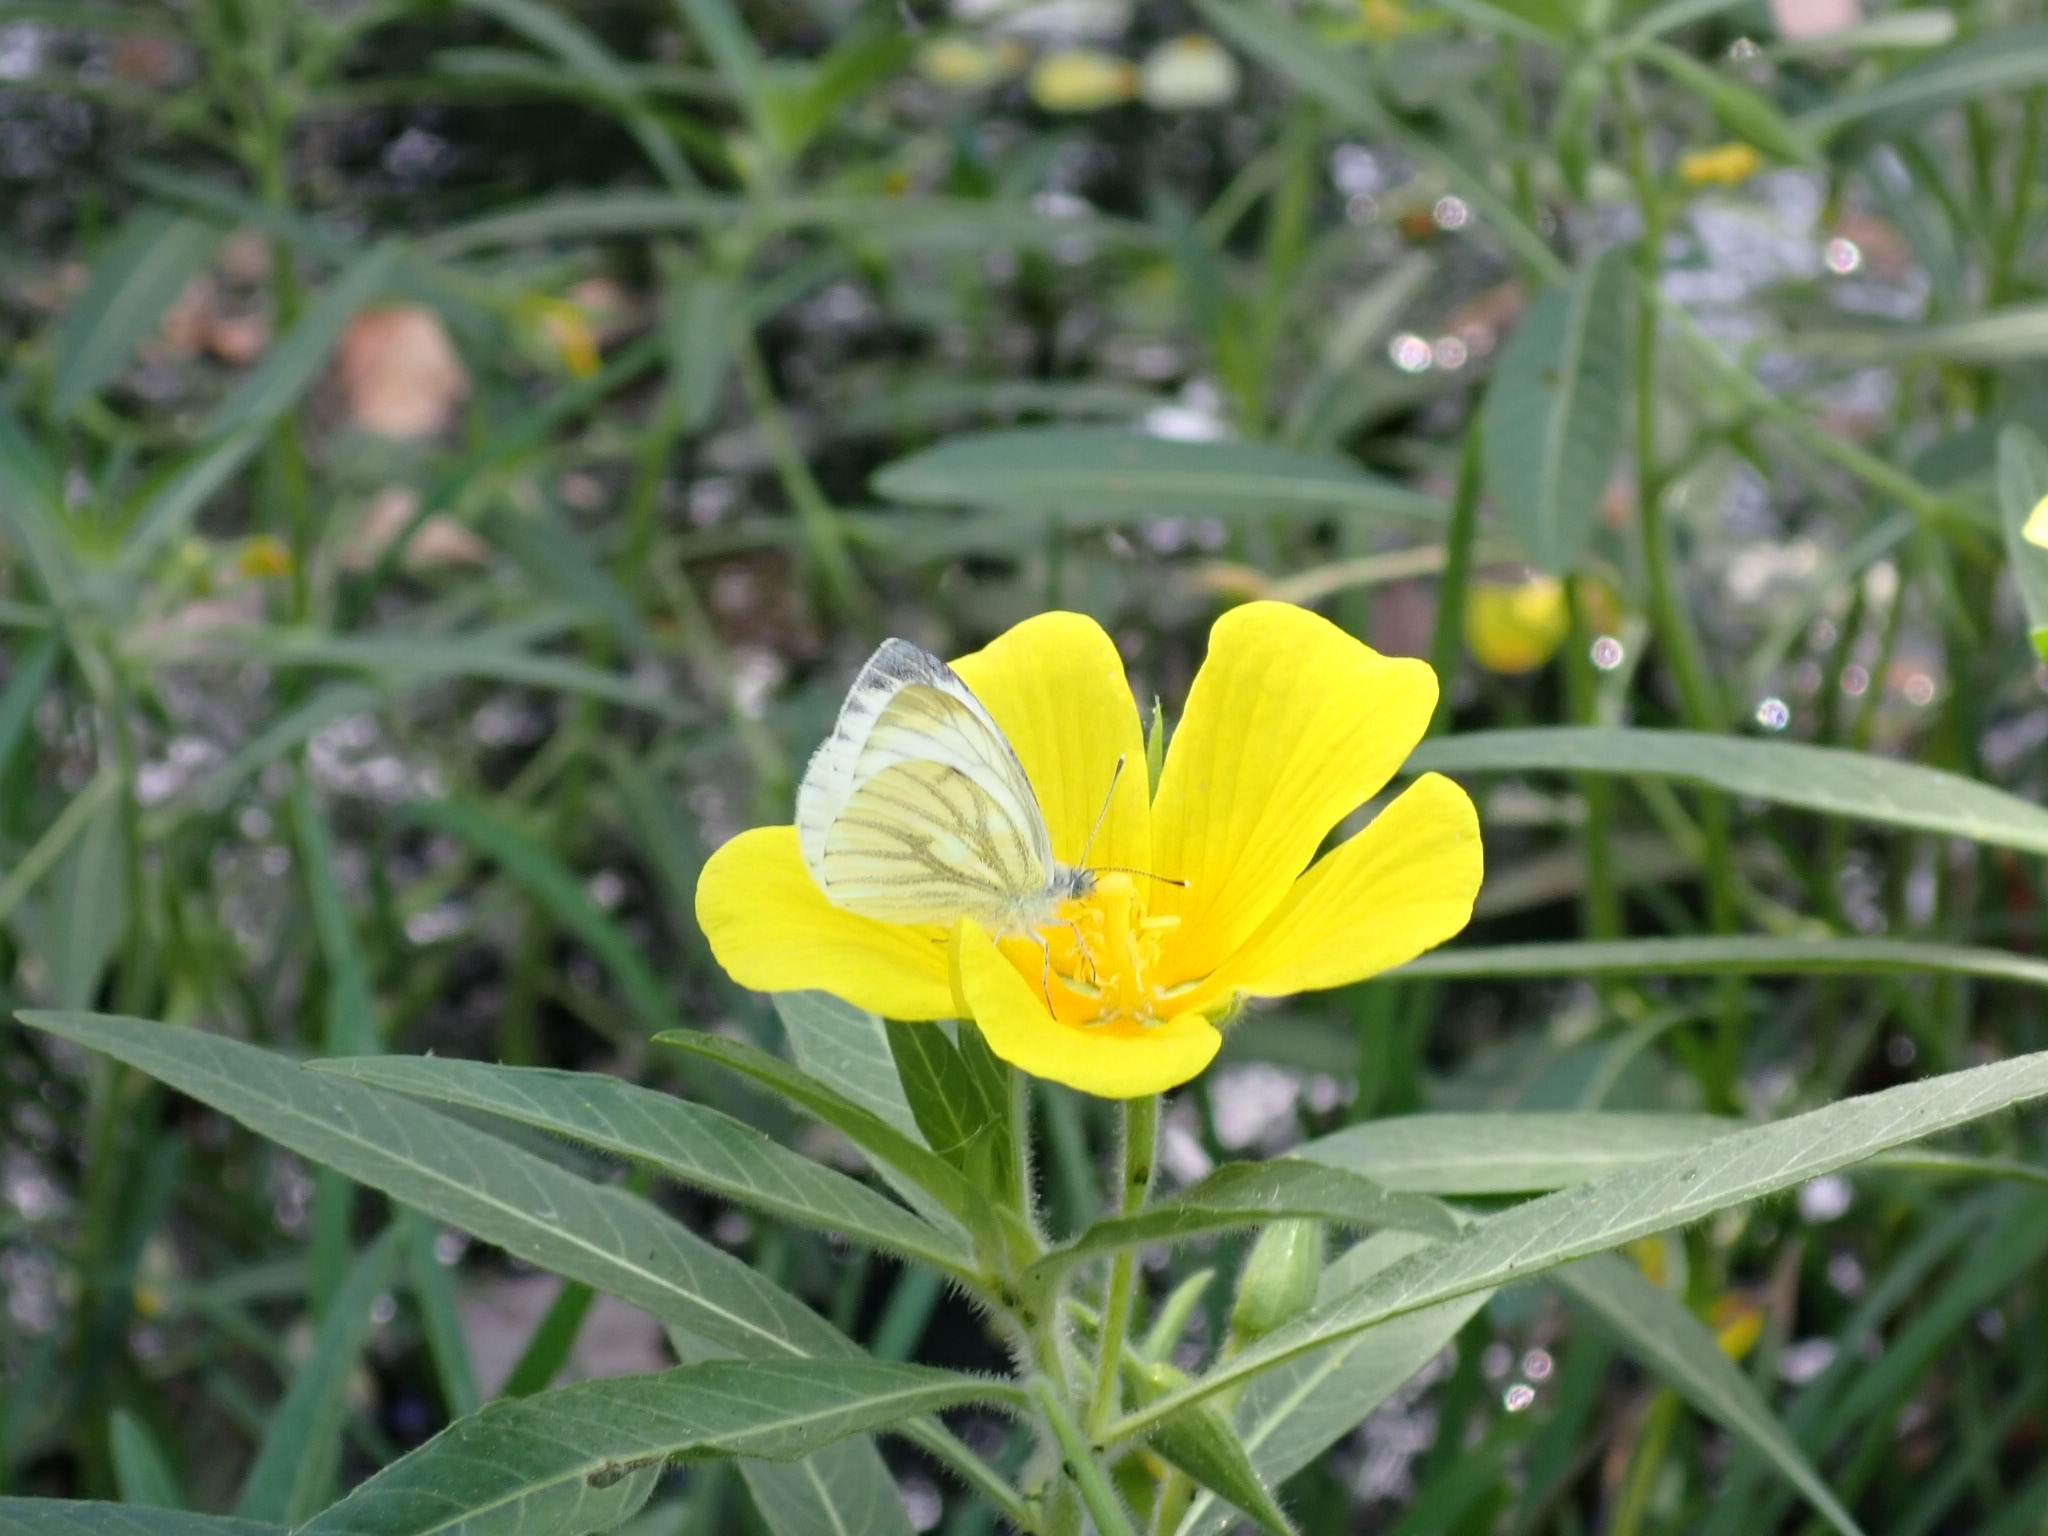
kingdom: Animalia
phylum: Arthropoda
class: Insecta
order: Lepidoptera
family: Pieridae
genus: Pieris
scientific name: Pieris napi
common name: Green-veined white
